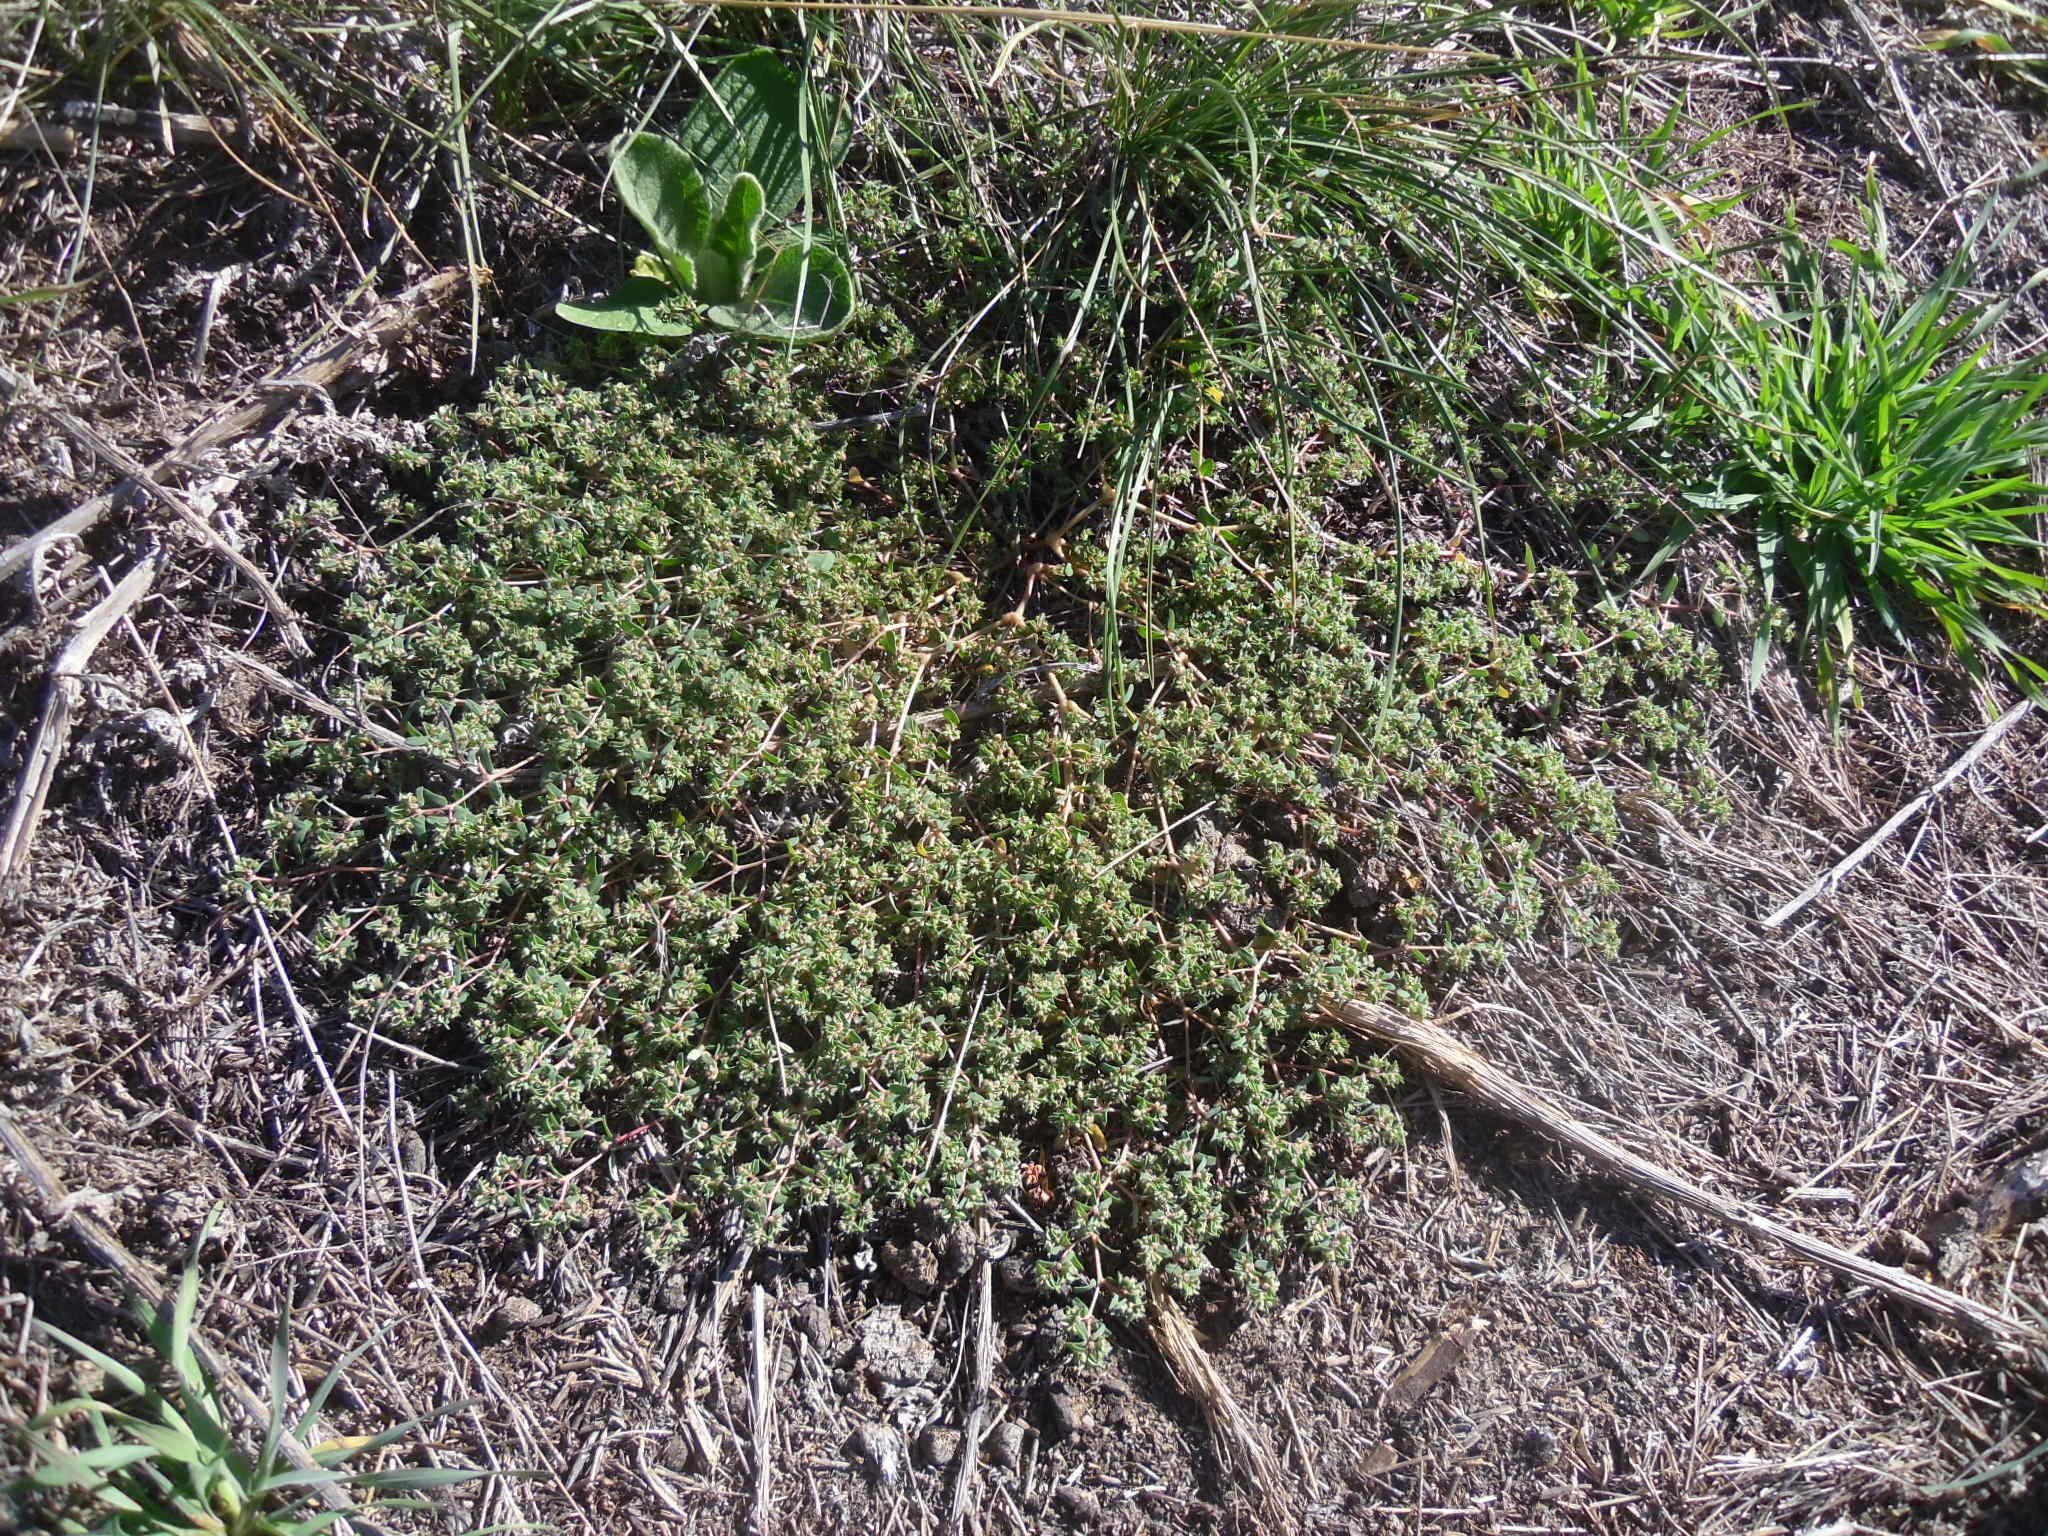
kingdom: Plantae
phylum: Tracheophyta
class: Magnoliopsida
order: Malpighiales
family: Euphorbiaceae
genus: Euphorbia
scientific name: Euphorbia glyptosperma
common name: Corrugate-seeded spurge
